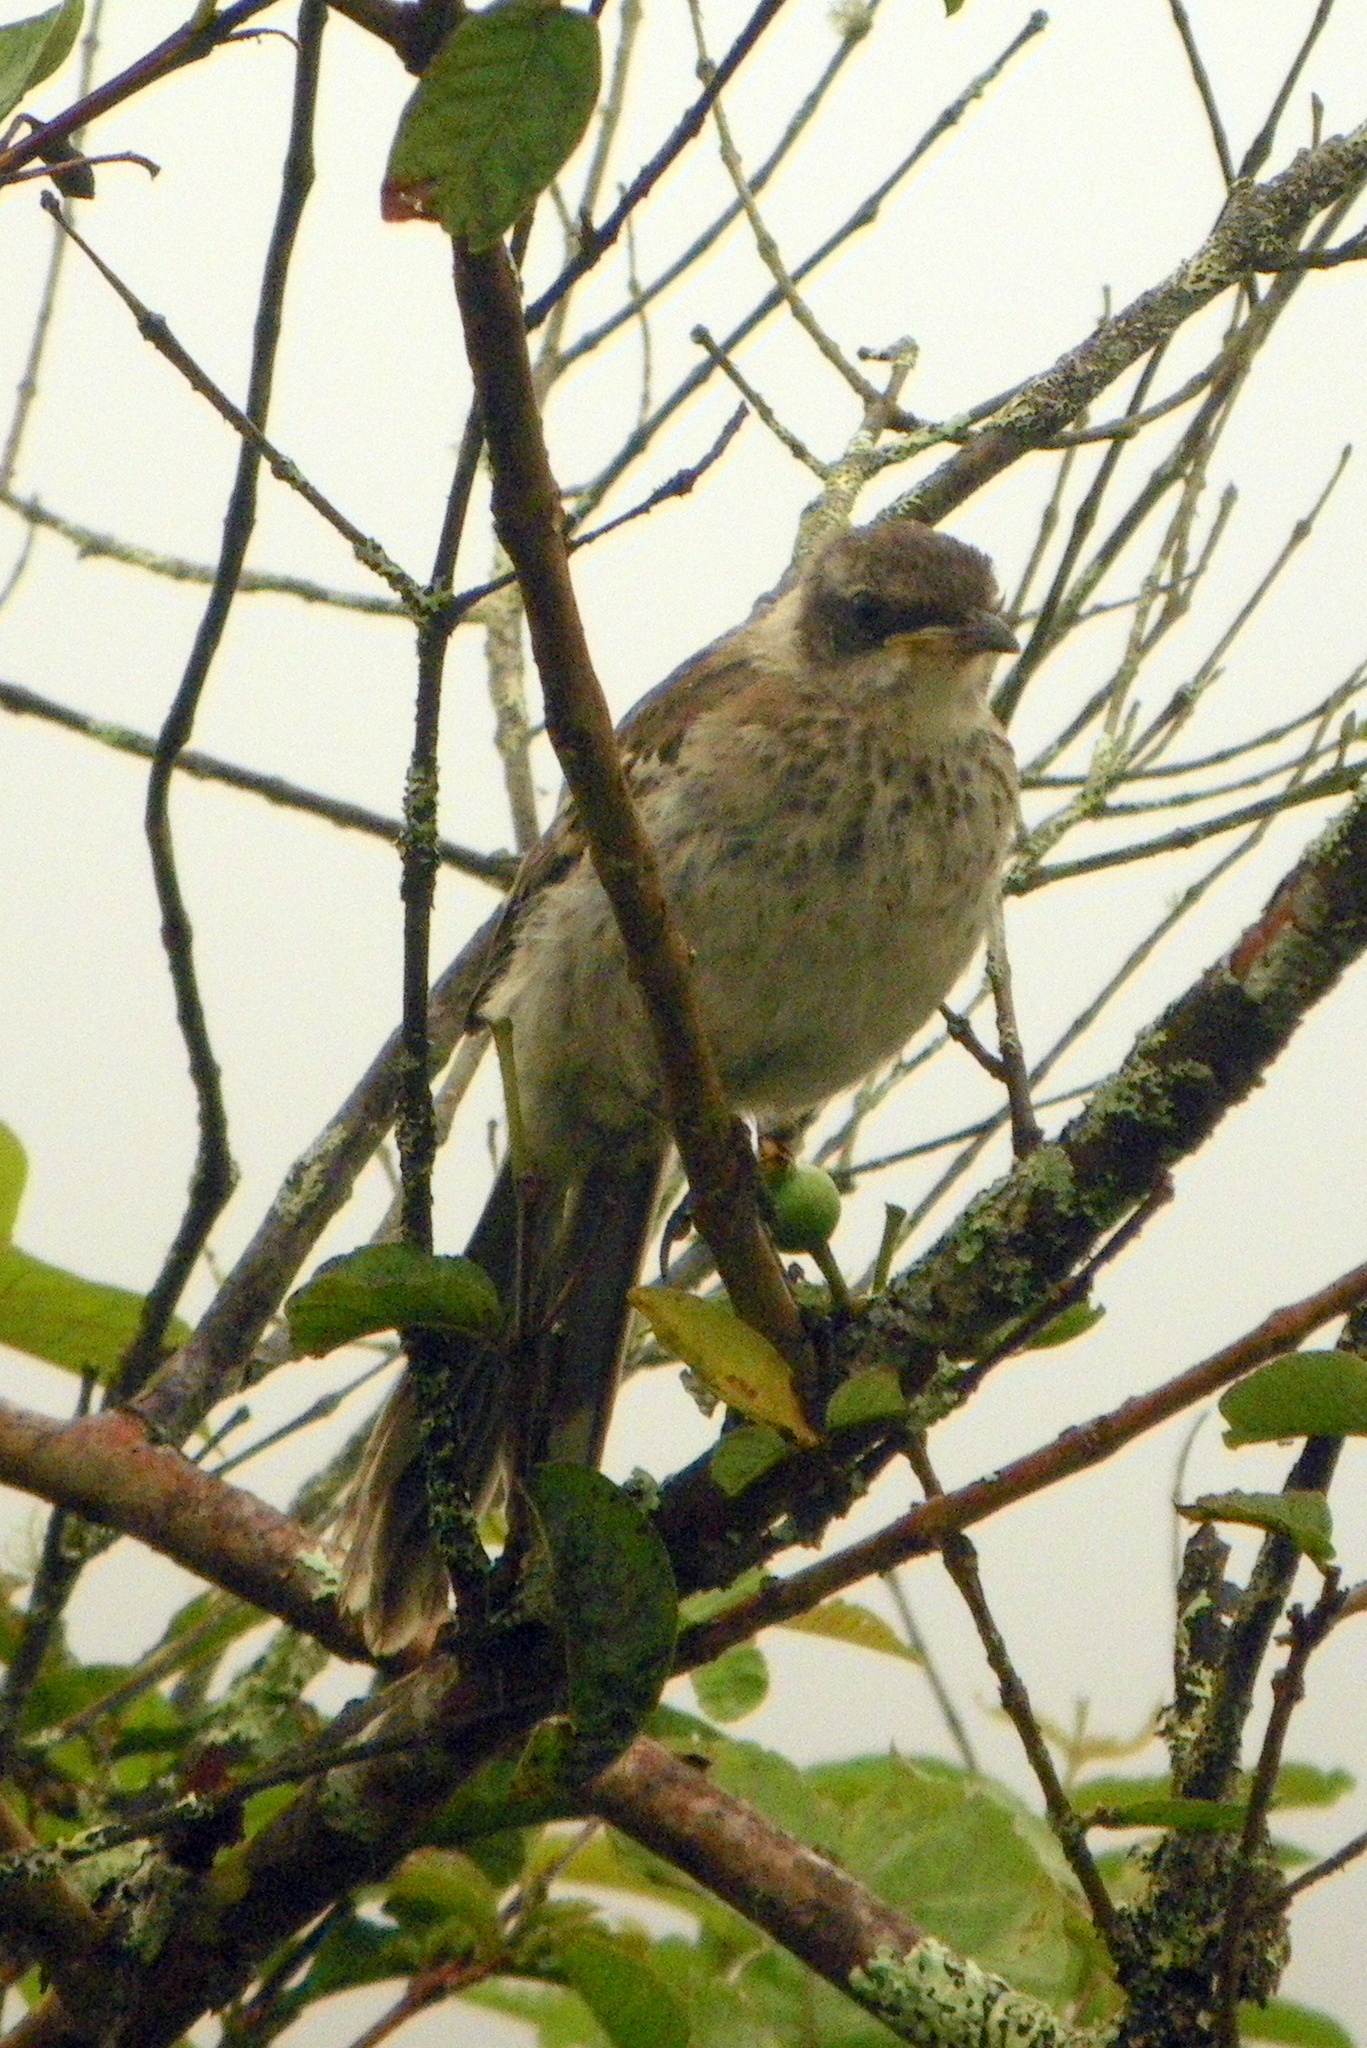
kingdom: Animalia
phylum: Chordata
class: Aves
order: Passeriformes
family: Mimidae
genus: Mimus
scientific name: Mimus parvulus
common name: Galapagos mockingbird
